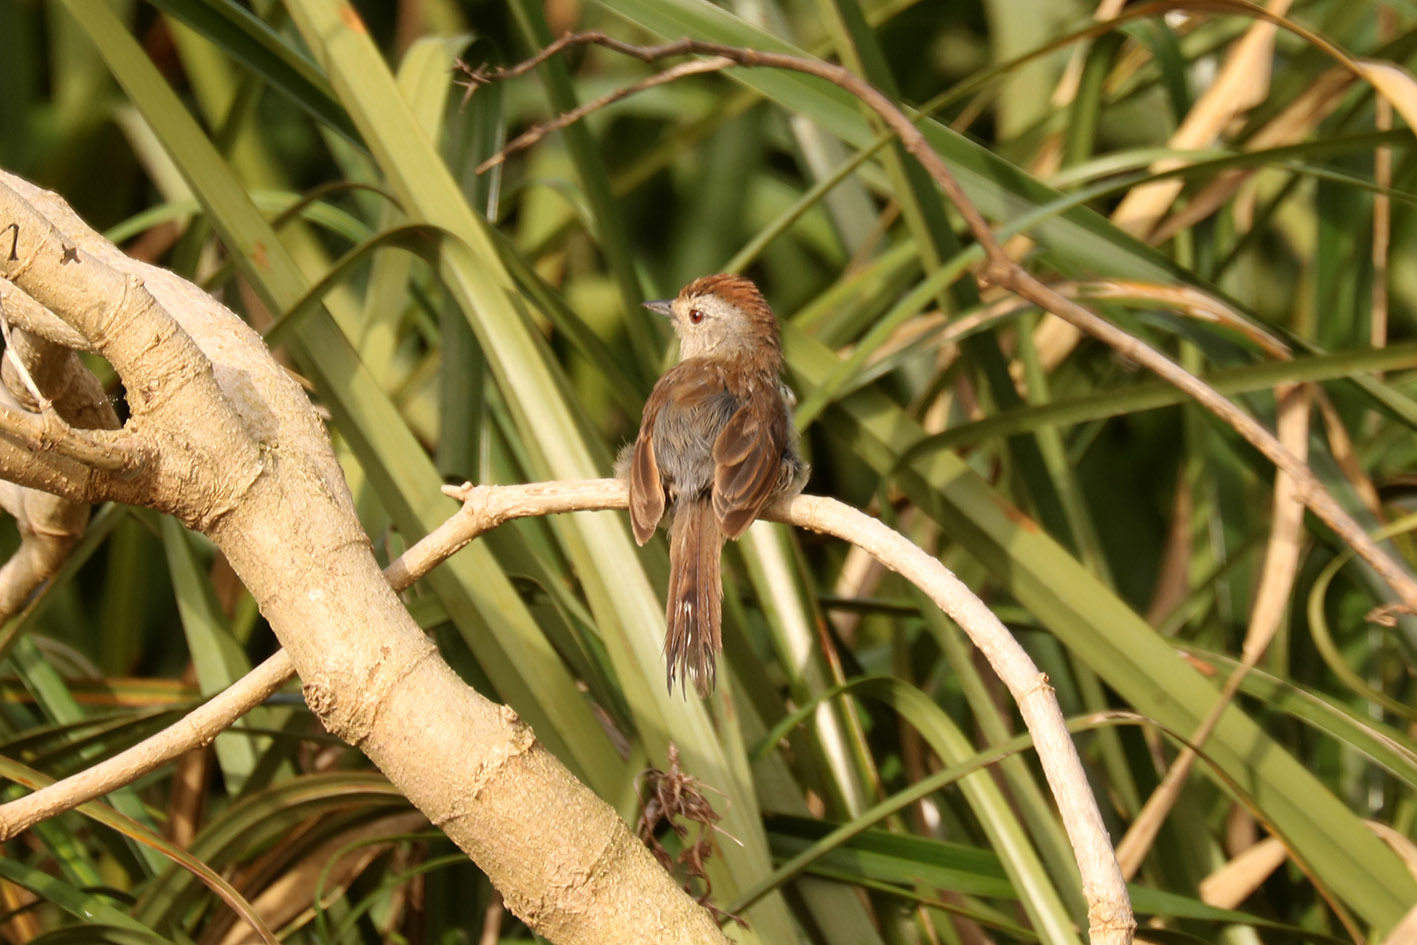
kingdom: Animalia
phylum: Chordata
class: Aves
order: Passeriformes
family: Thamnophilidae
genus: Thamnophilus
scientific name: Thamnophilus ruficapillus
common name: Rufous-capped antshrike
